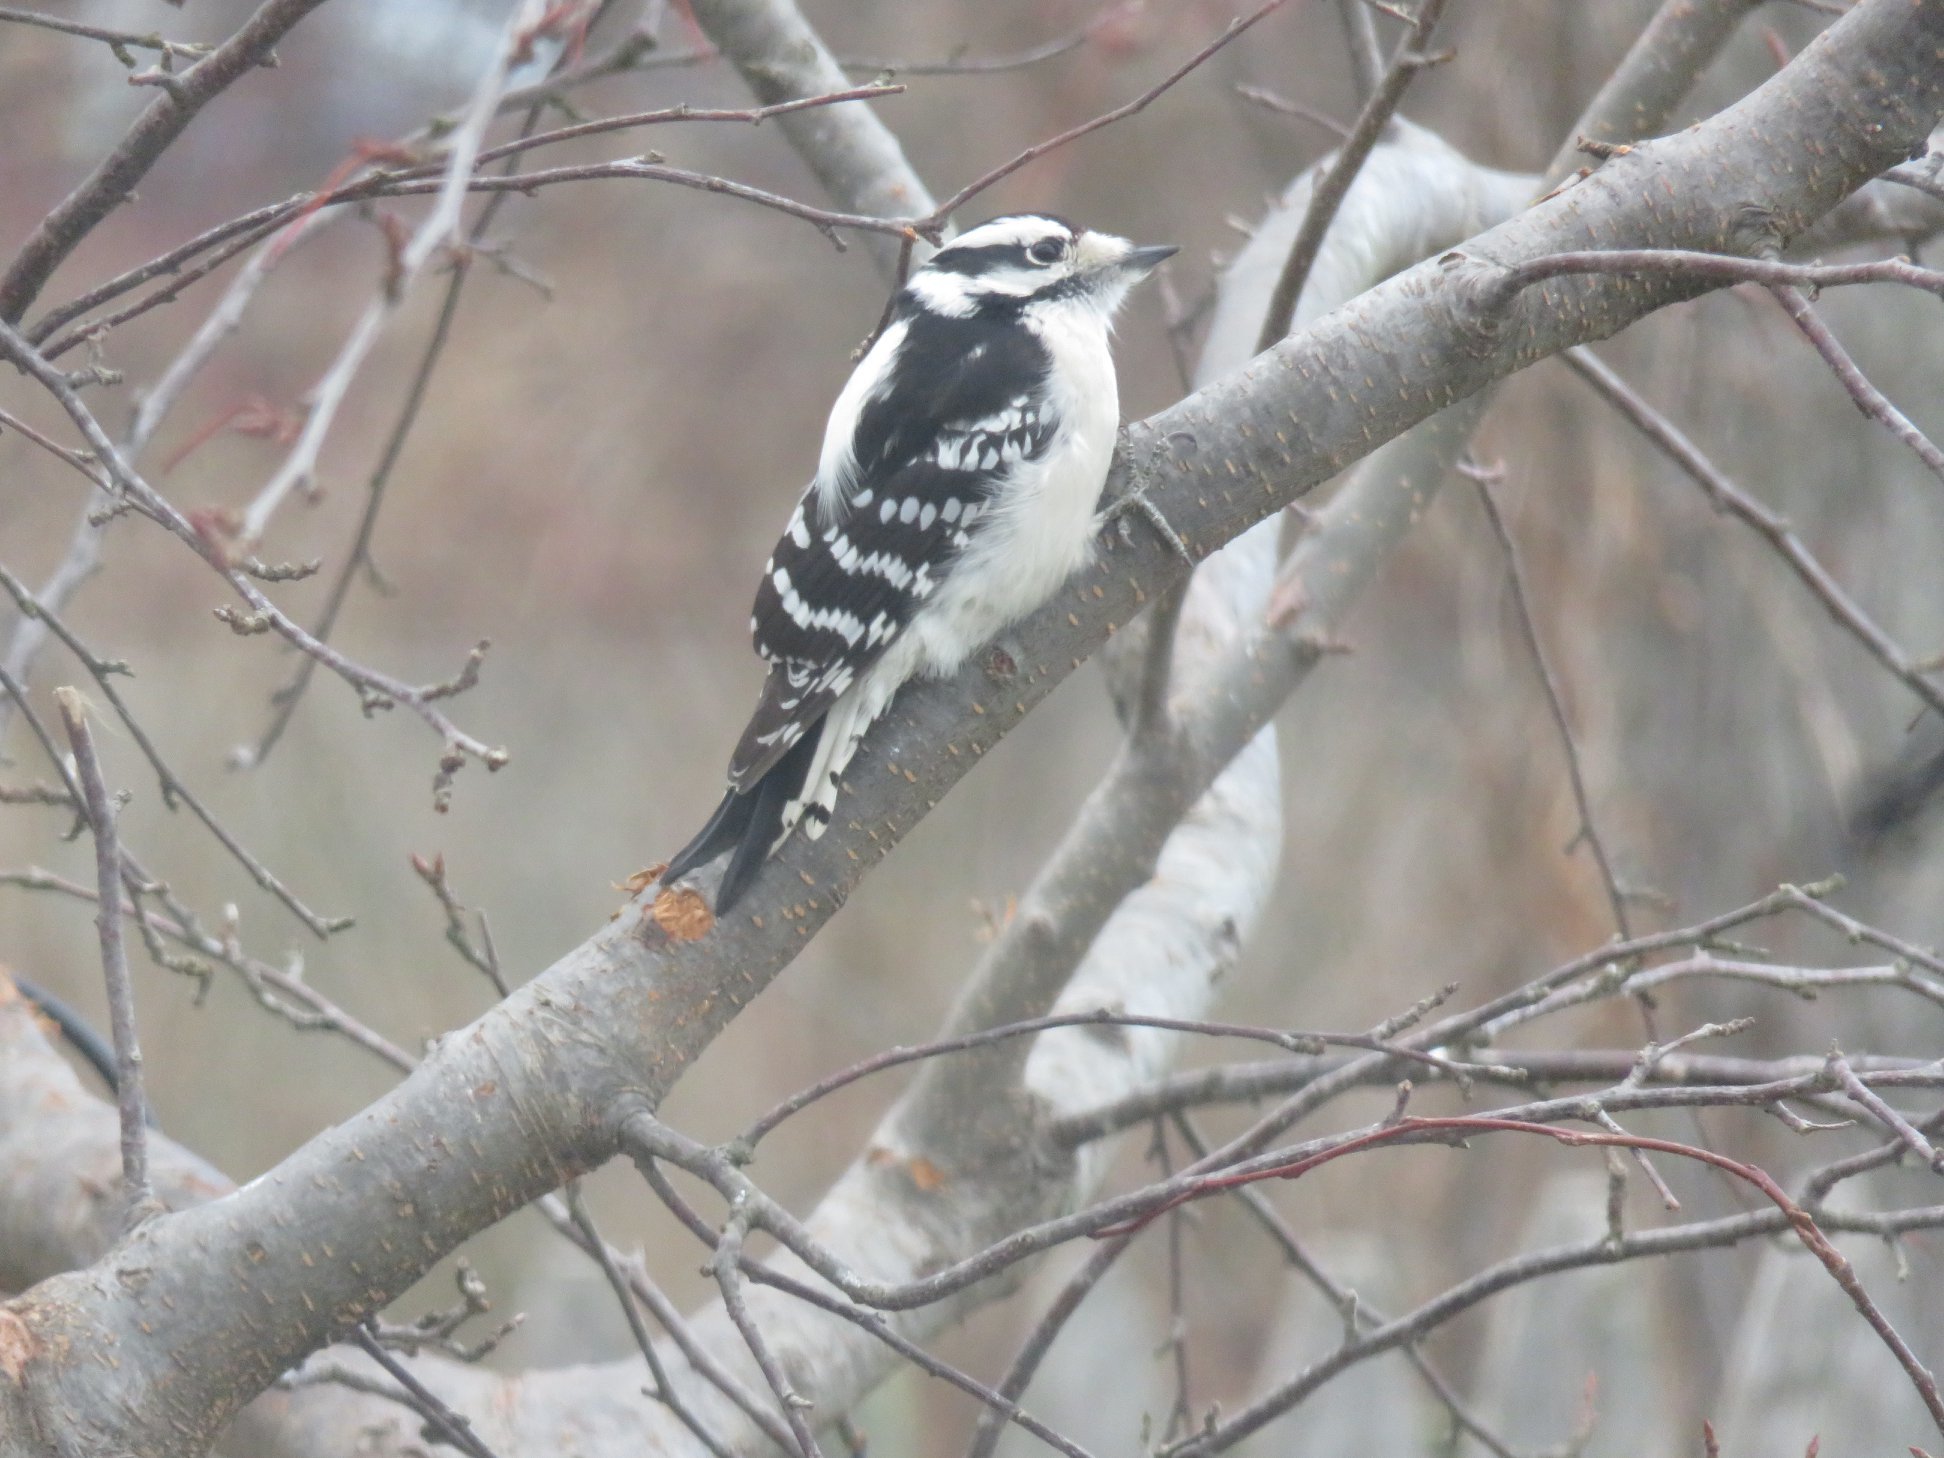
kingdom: Animalia
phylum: Chordata
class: Aves
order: Piciformes
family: Picidae
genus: Dryobates
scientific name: Dryobates pubescens
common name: Downy woodpecker
